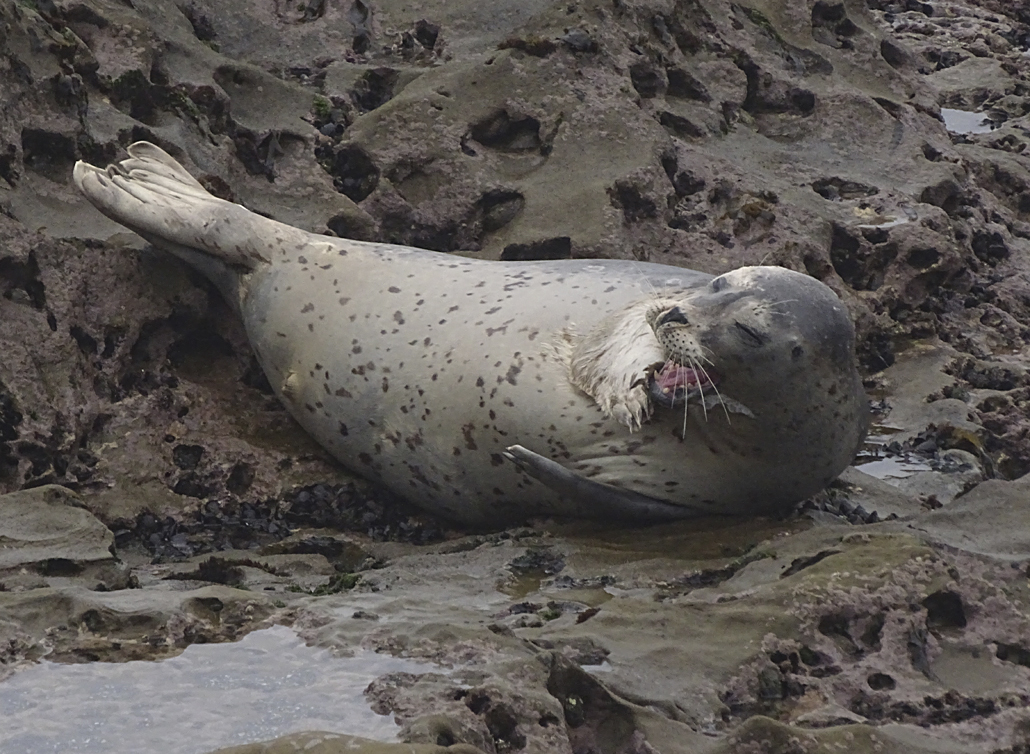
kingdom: Animalia
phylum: Chordata
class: Mammalia
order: Carnivora
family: Phocidae
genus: Phoca
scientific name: Phoca vitulina
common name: Harbor seal
